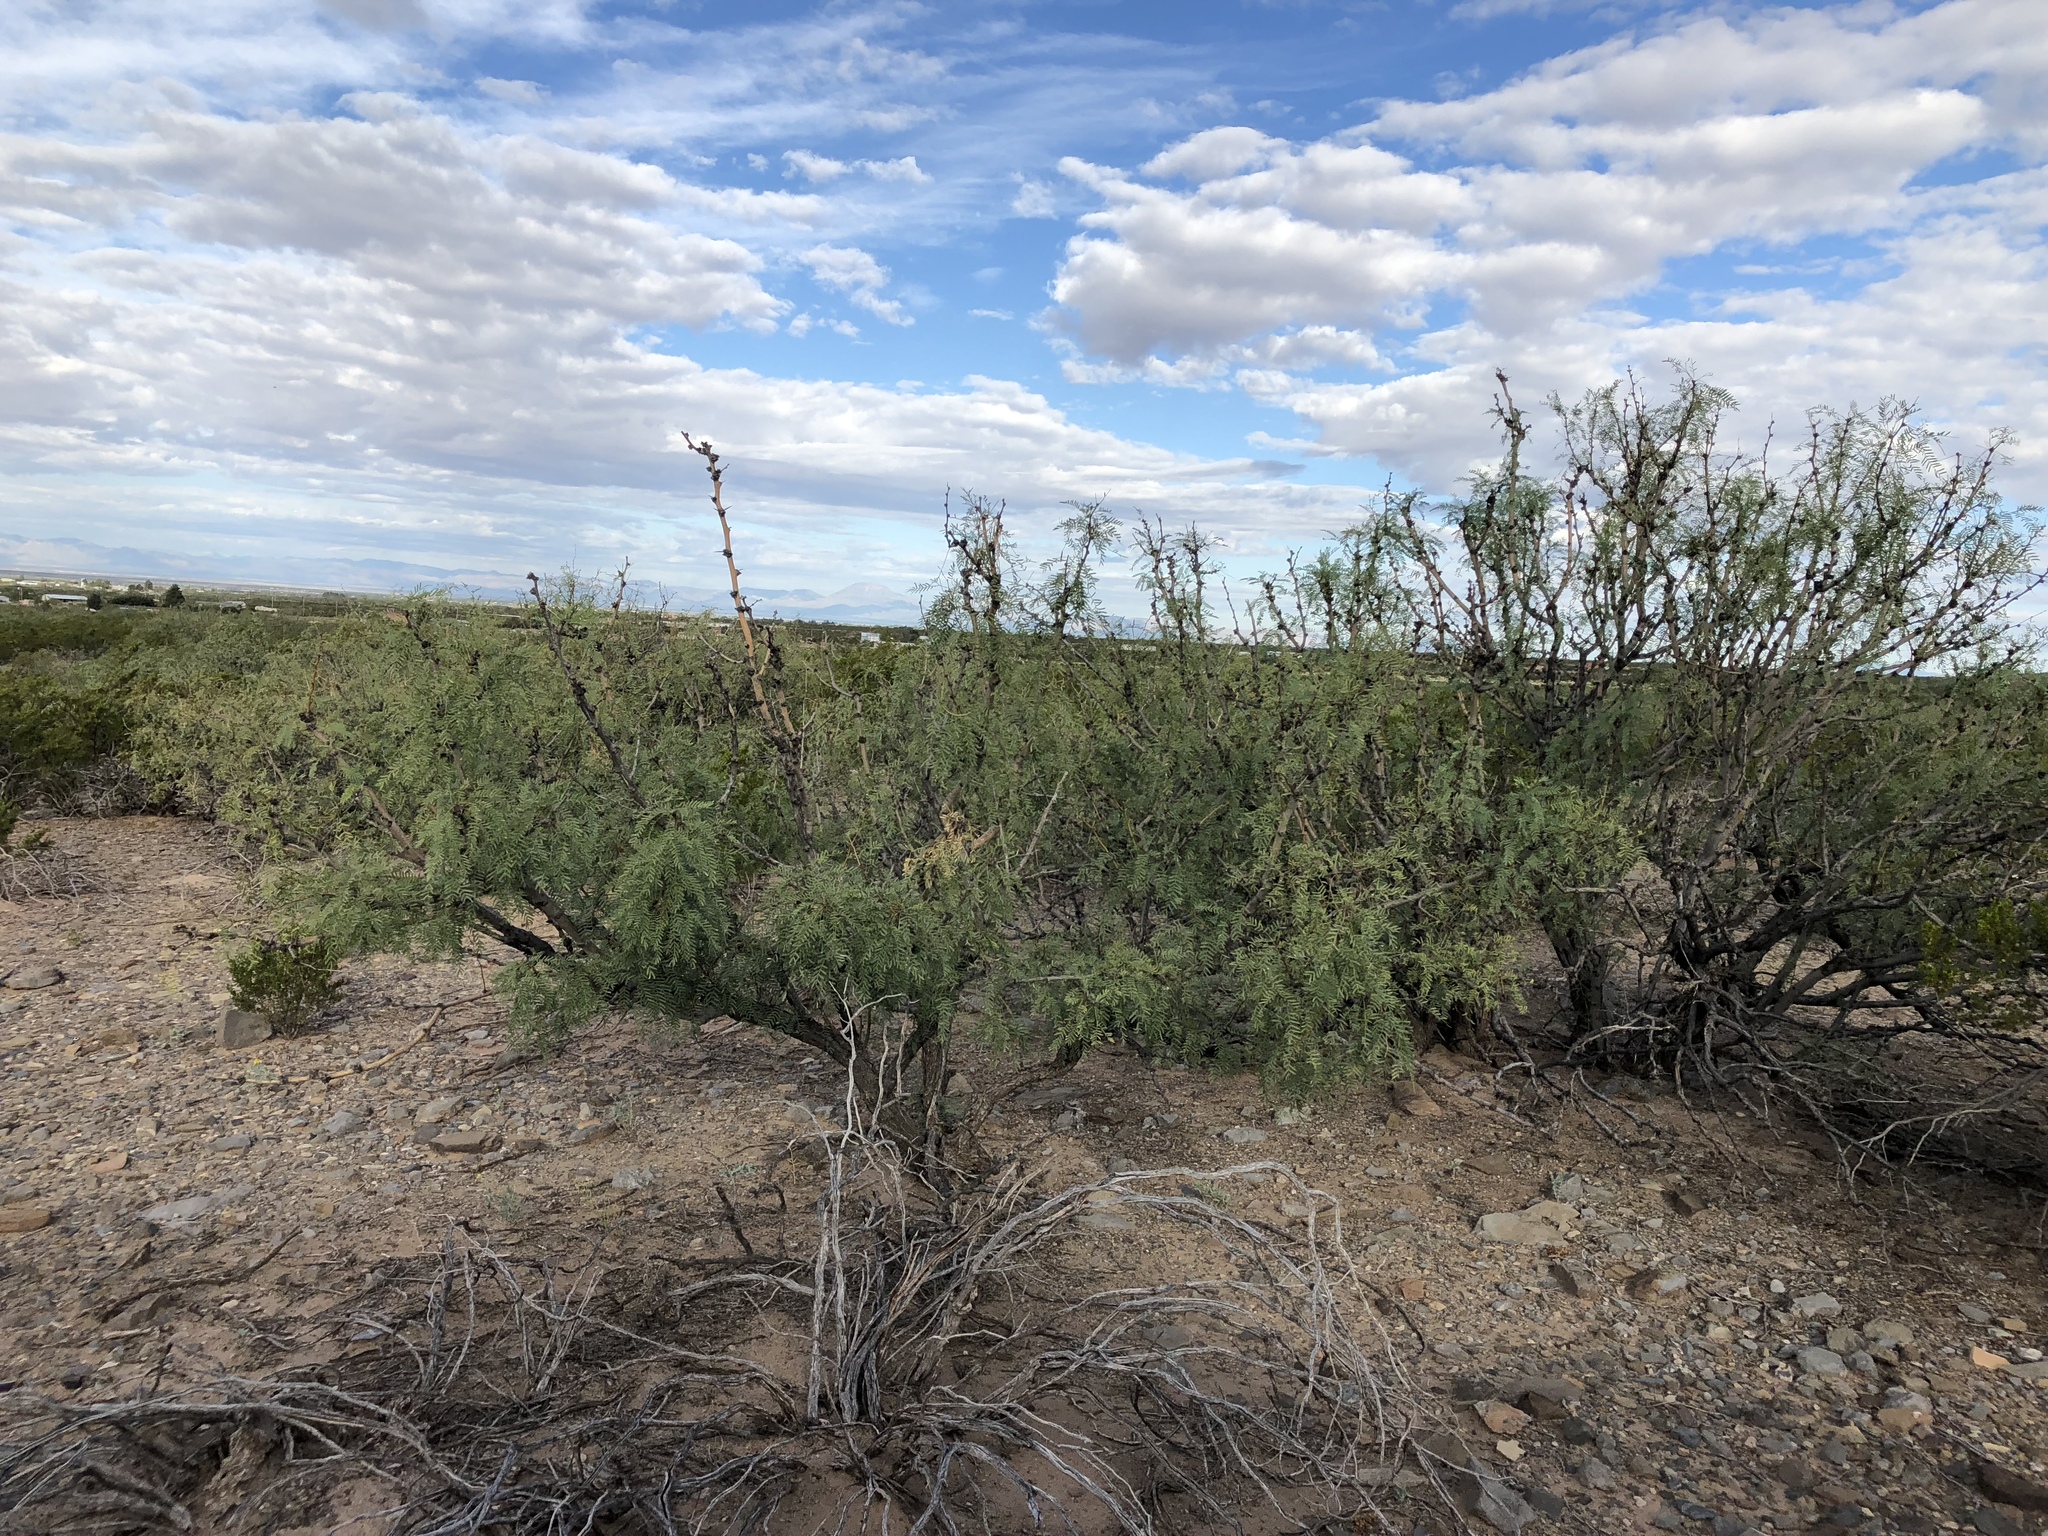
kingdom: Plantae
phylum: Tracheophyta
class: Magnoliopsida
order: Fabales
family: Fabaceae
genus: Prosopis
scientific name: Prosopis glandulosa
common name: Honey mesquite
